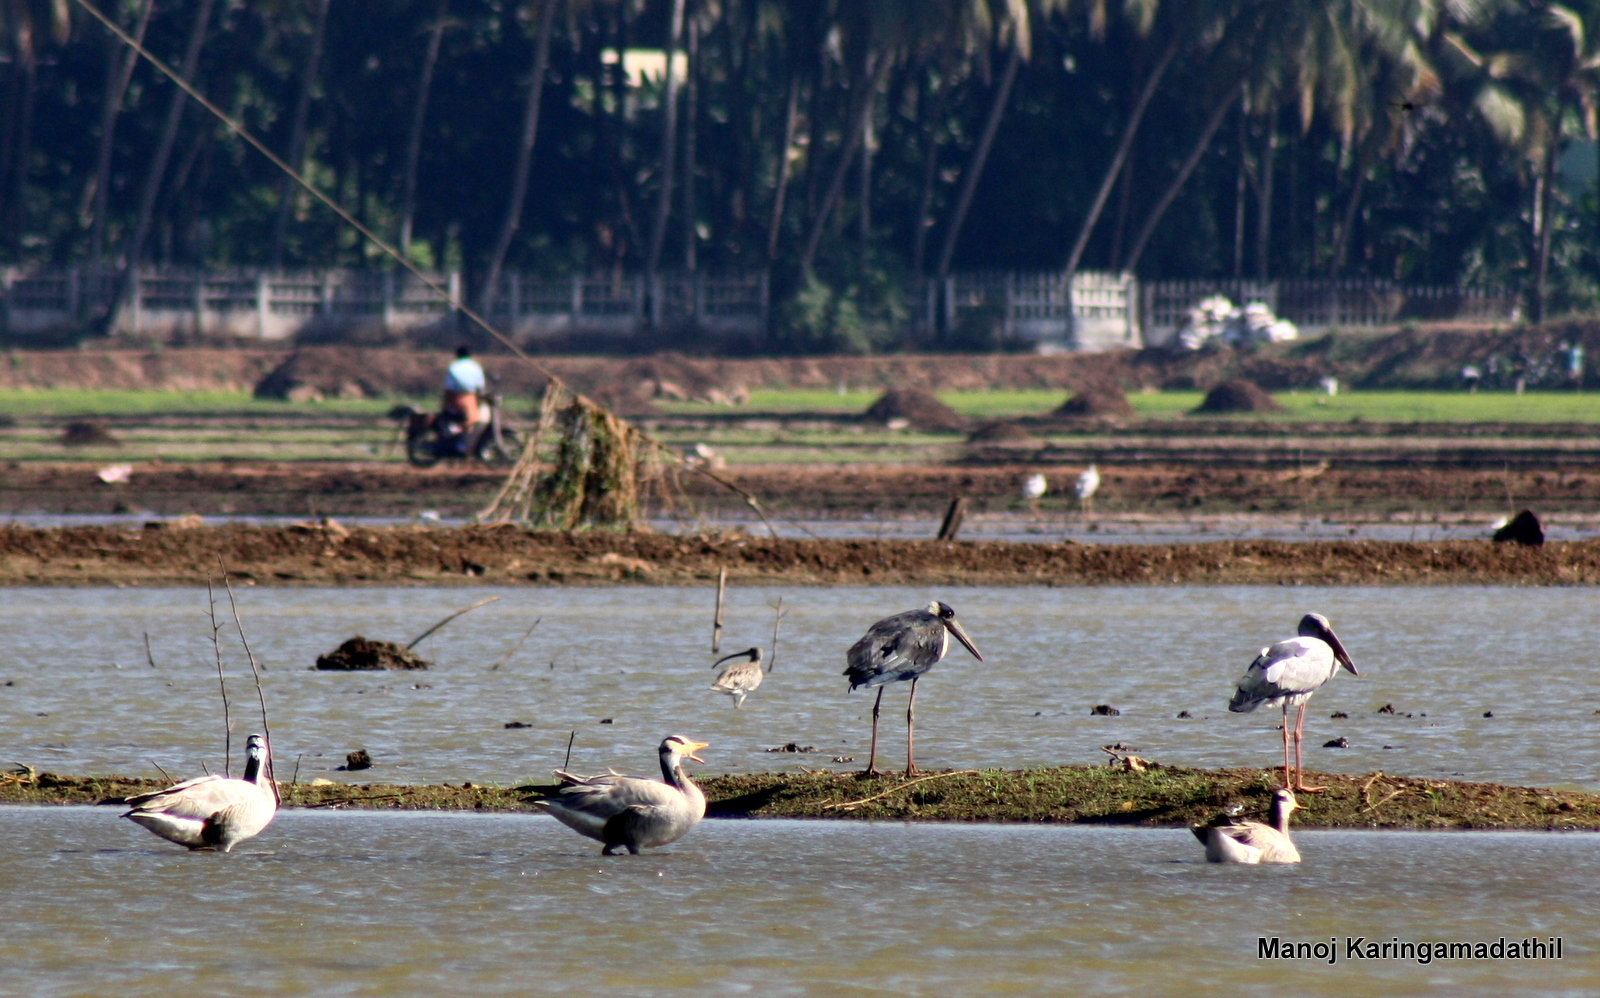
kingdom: Animalia
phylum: Chordata
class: Aves
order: Anseriformes
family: Anatidae
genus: Anser
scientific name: Anser indicus
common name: Bar-headed goose
